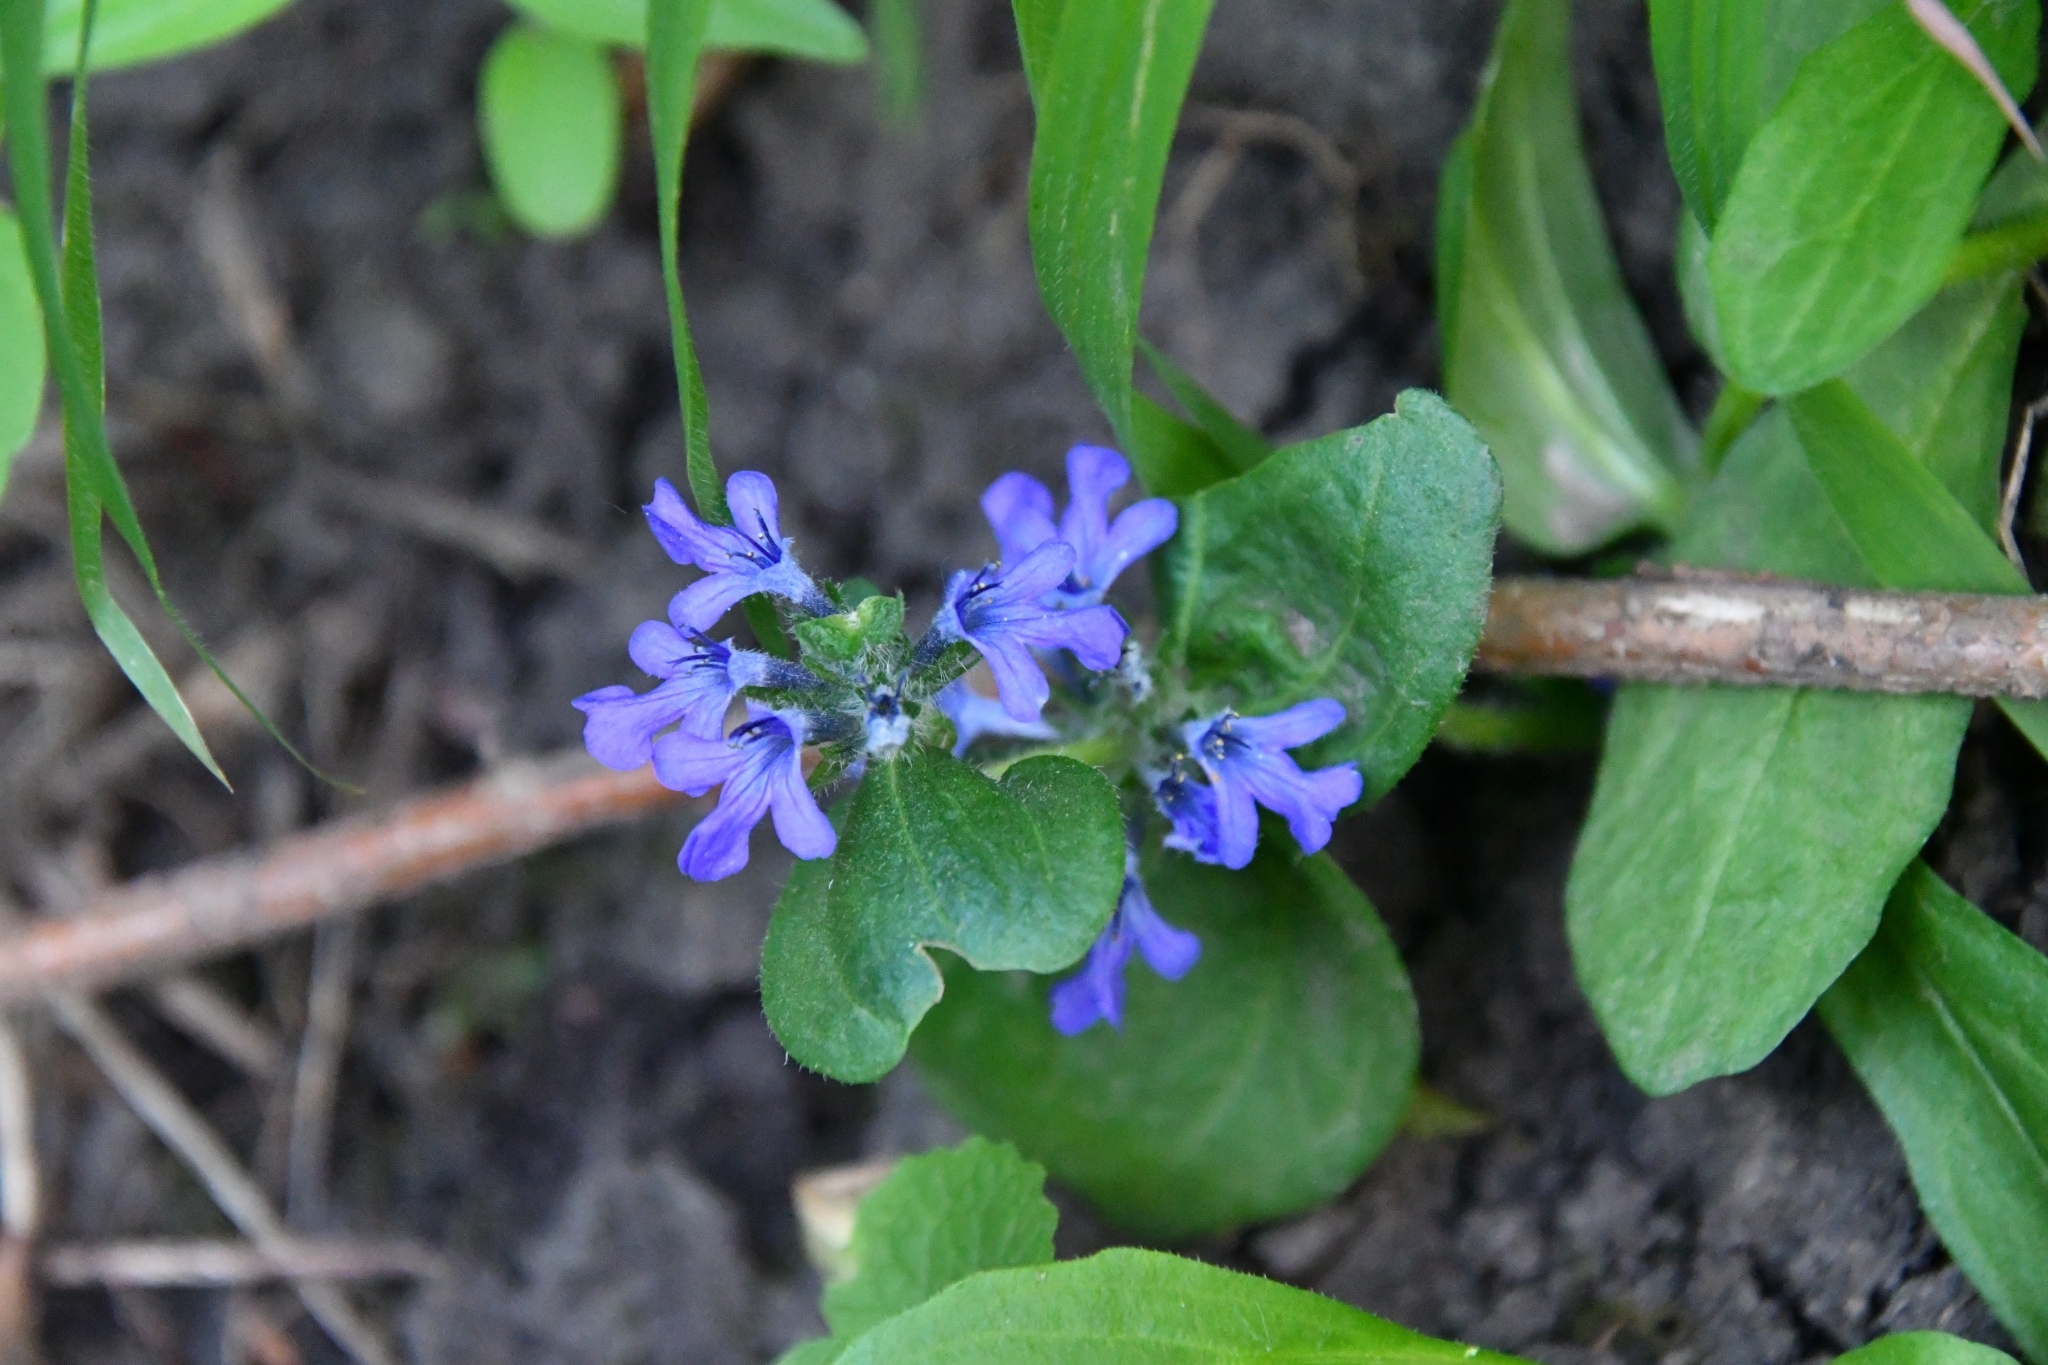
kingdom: Plantae
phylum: Tracheophyta
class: Magnoliopsida
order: Lamiales
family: Lamiaceae
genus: Ajuga
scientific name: Ajuga genevensis
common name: Blue bugle
